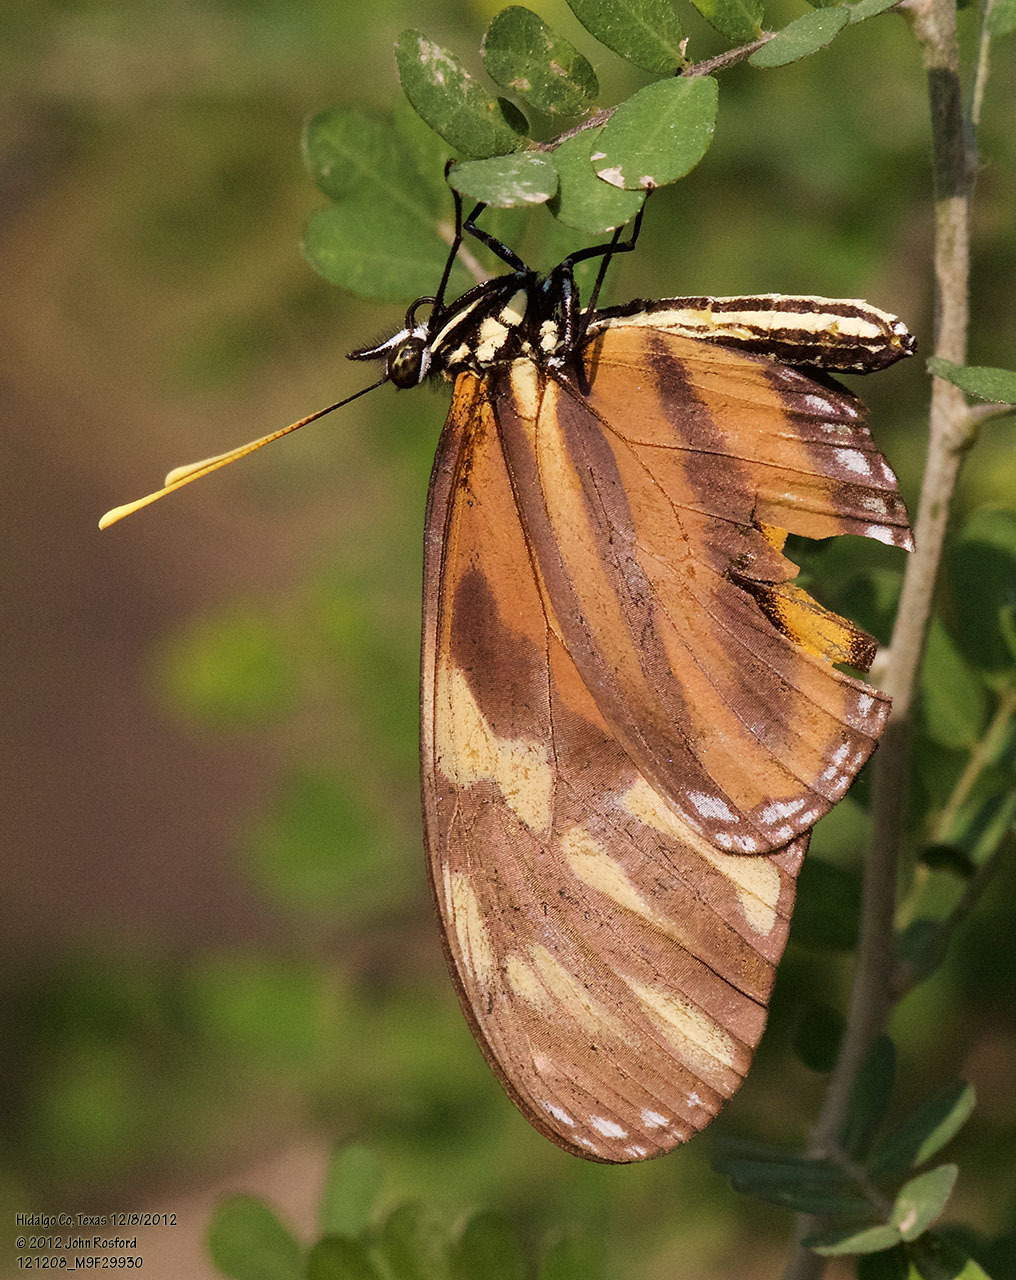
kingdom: Animalia
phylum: Arthropoda
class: Insecta
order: Lepidoptera
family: Nymphalidae
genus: Eueides
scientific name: Eueides isabella
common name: Isabella's longwing
